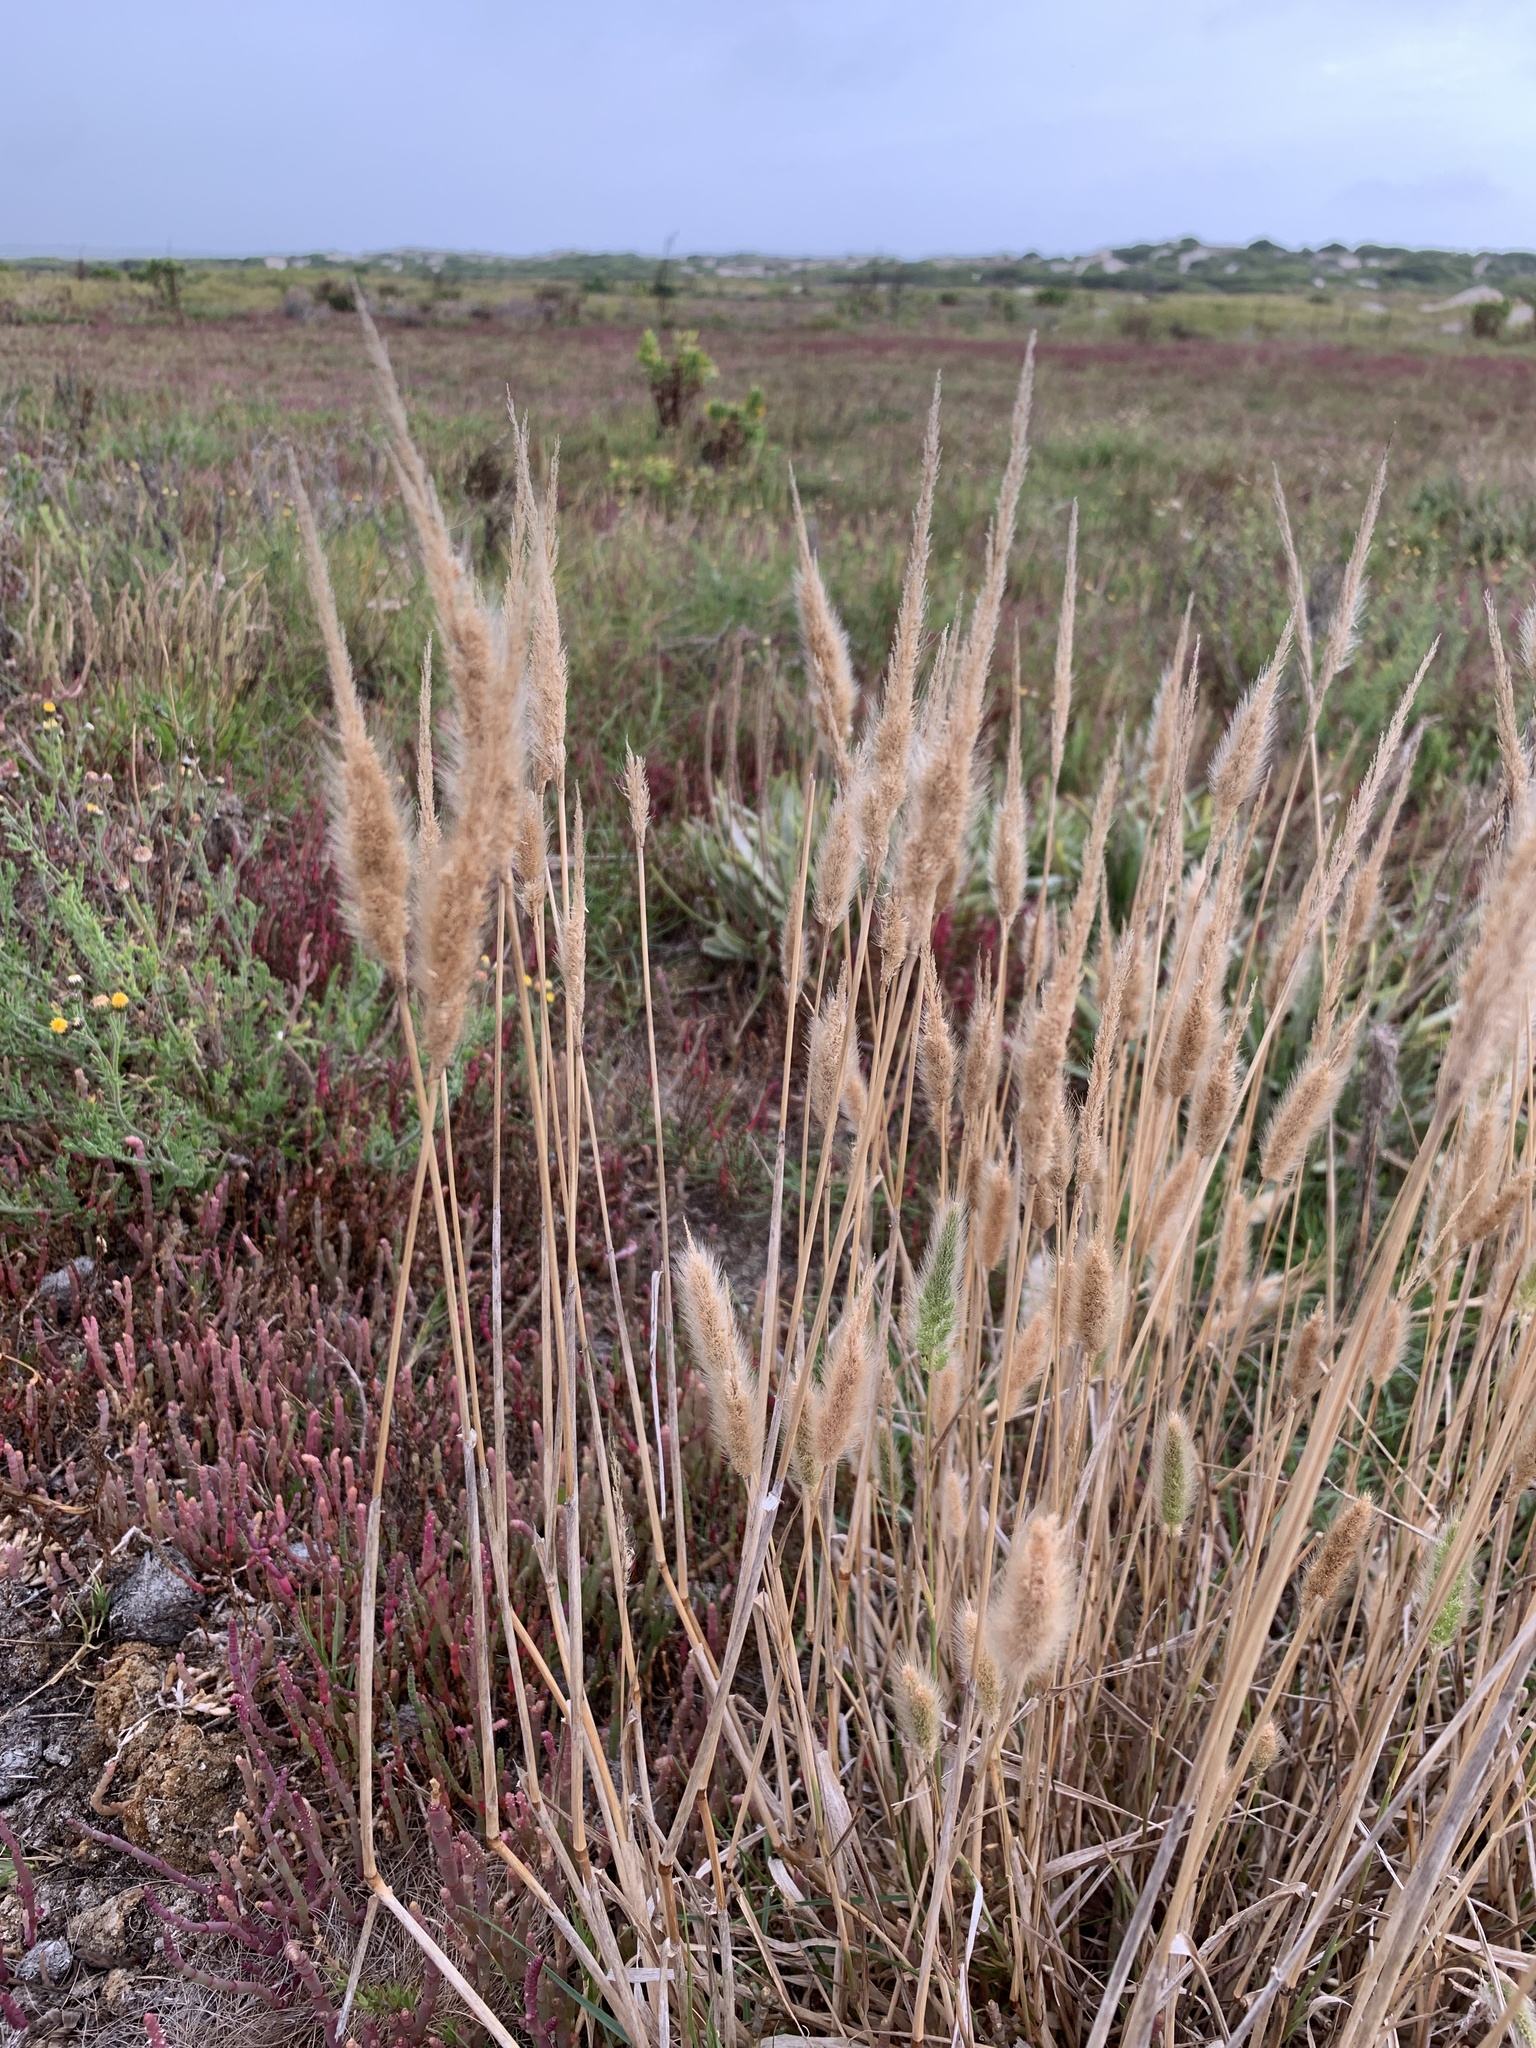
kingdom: Plantae
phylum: Tracheophyta
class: Liliopsida
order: Poales
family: Poaceae
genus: Polypogon
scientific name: Polypogon monspeliensis
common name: Annual rabbitsfoot grass
